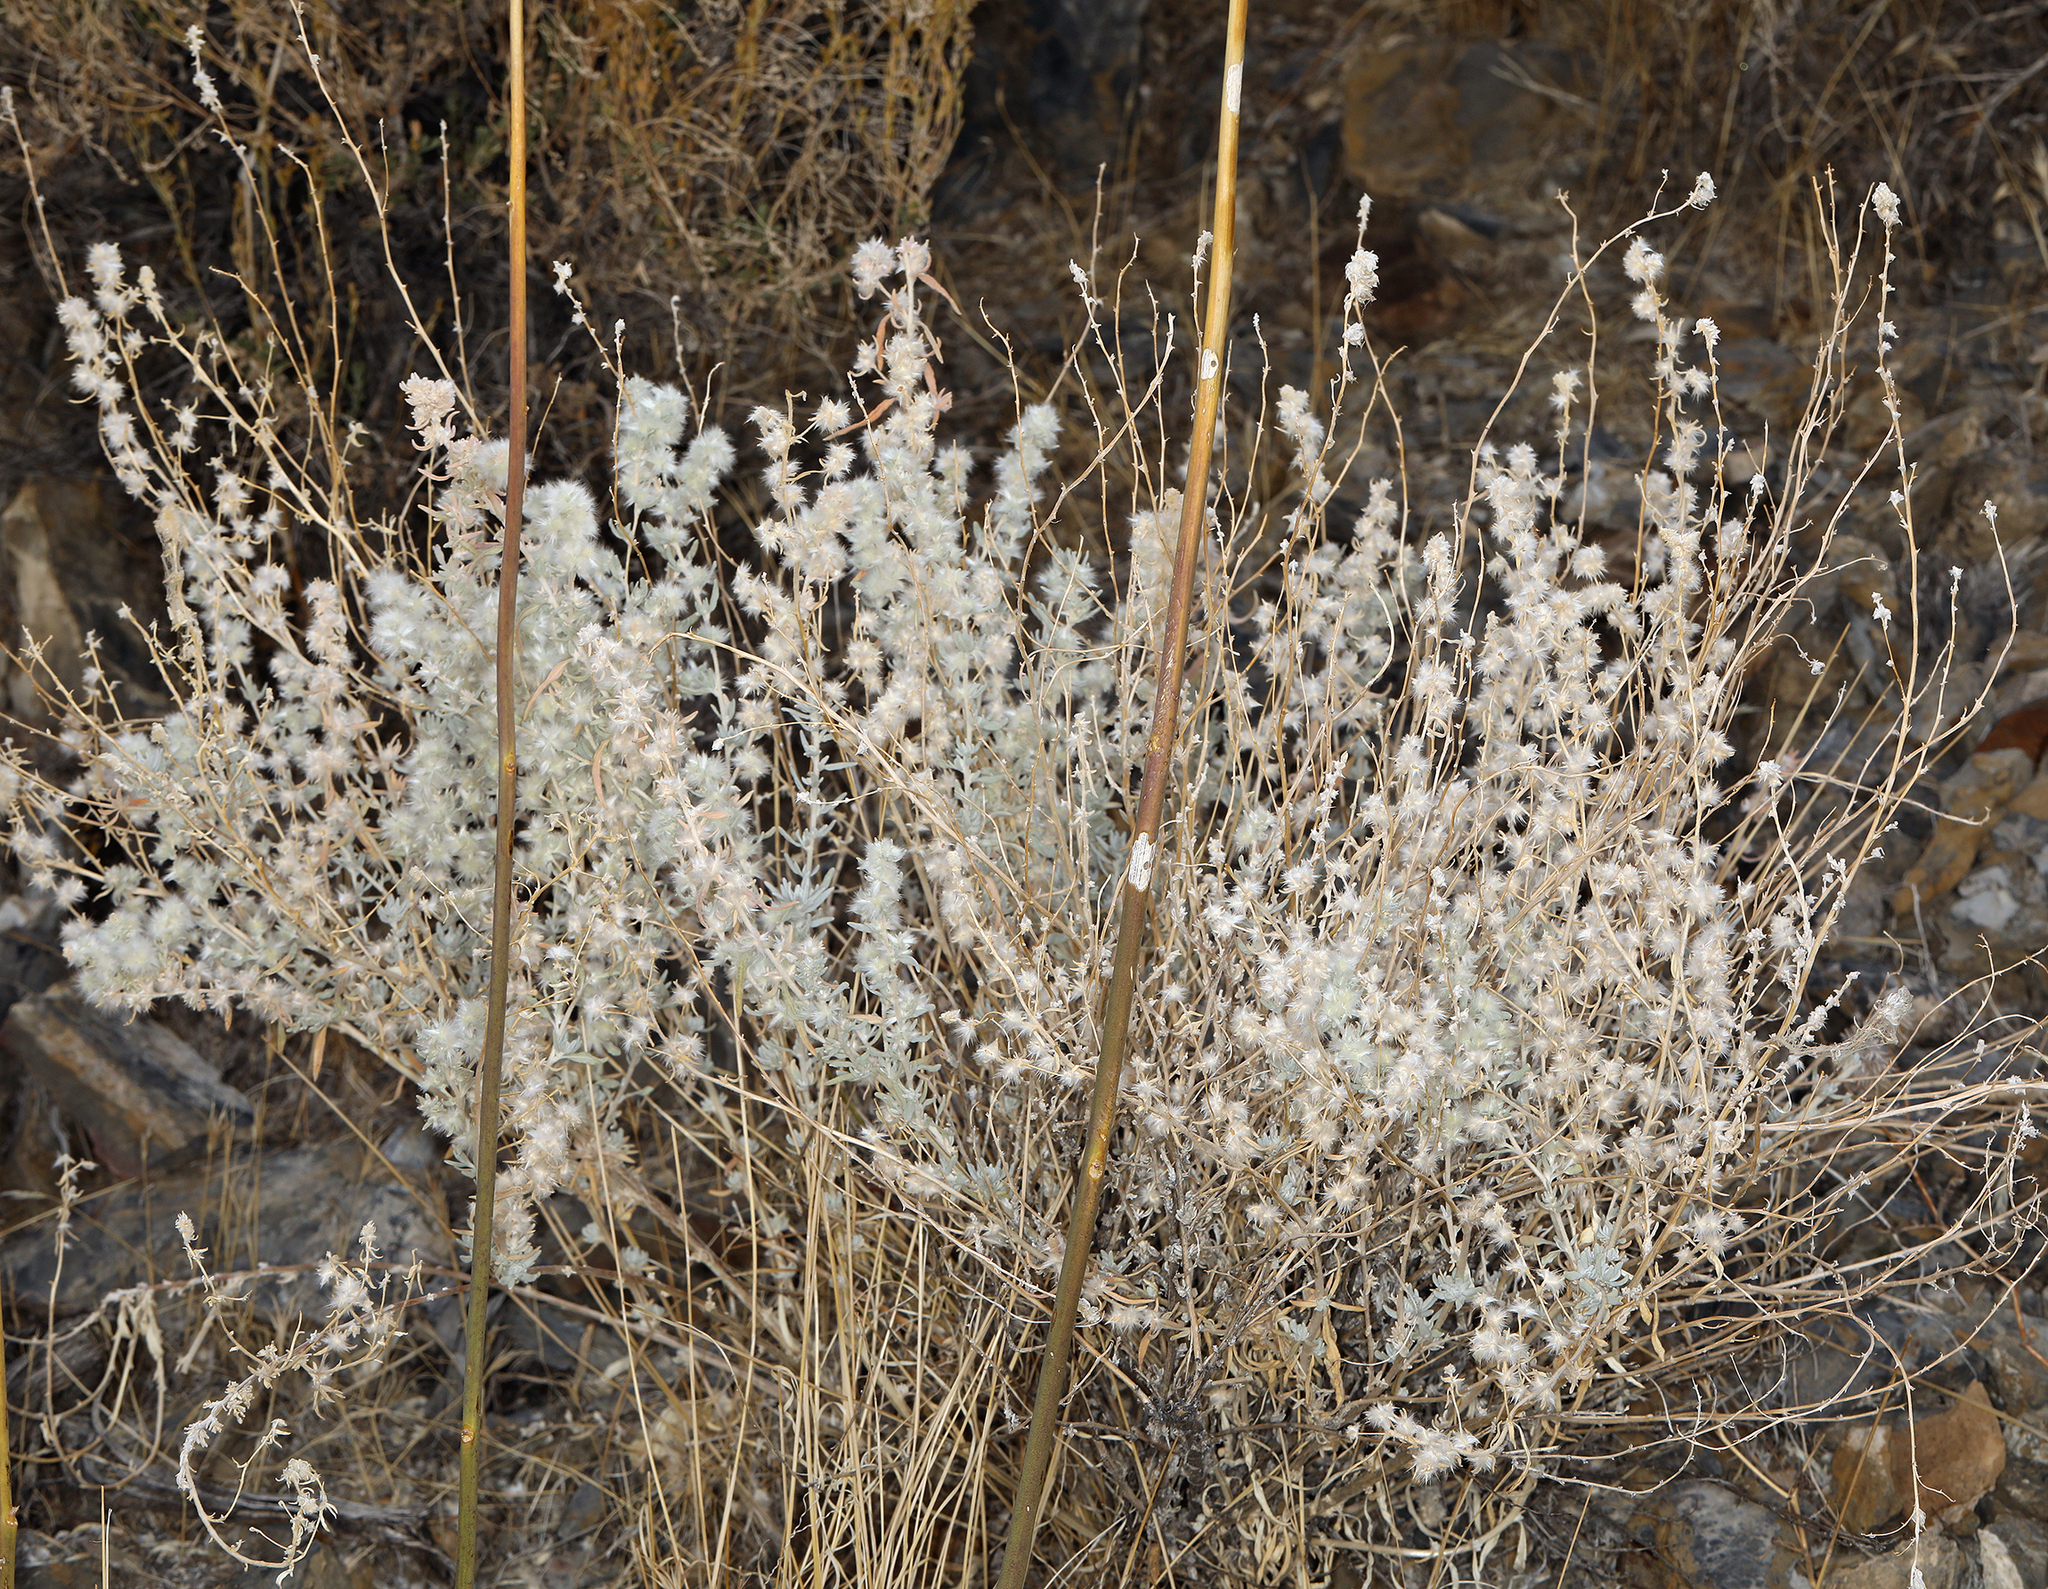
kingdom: Plantae
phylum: Tracheophyta
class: Magnoliopsida
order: Caryophyllales
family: Amaranthaceae
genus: Krascheninnikovia
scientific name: Krascheninnikovia lanata
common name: Winterfat
